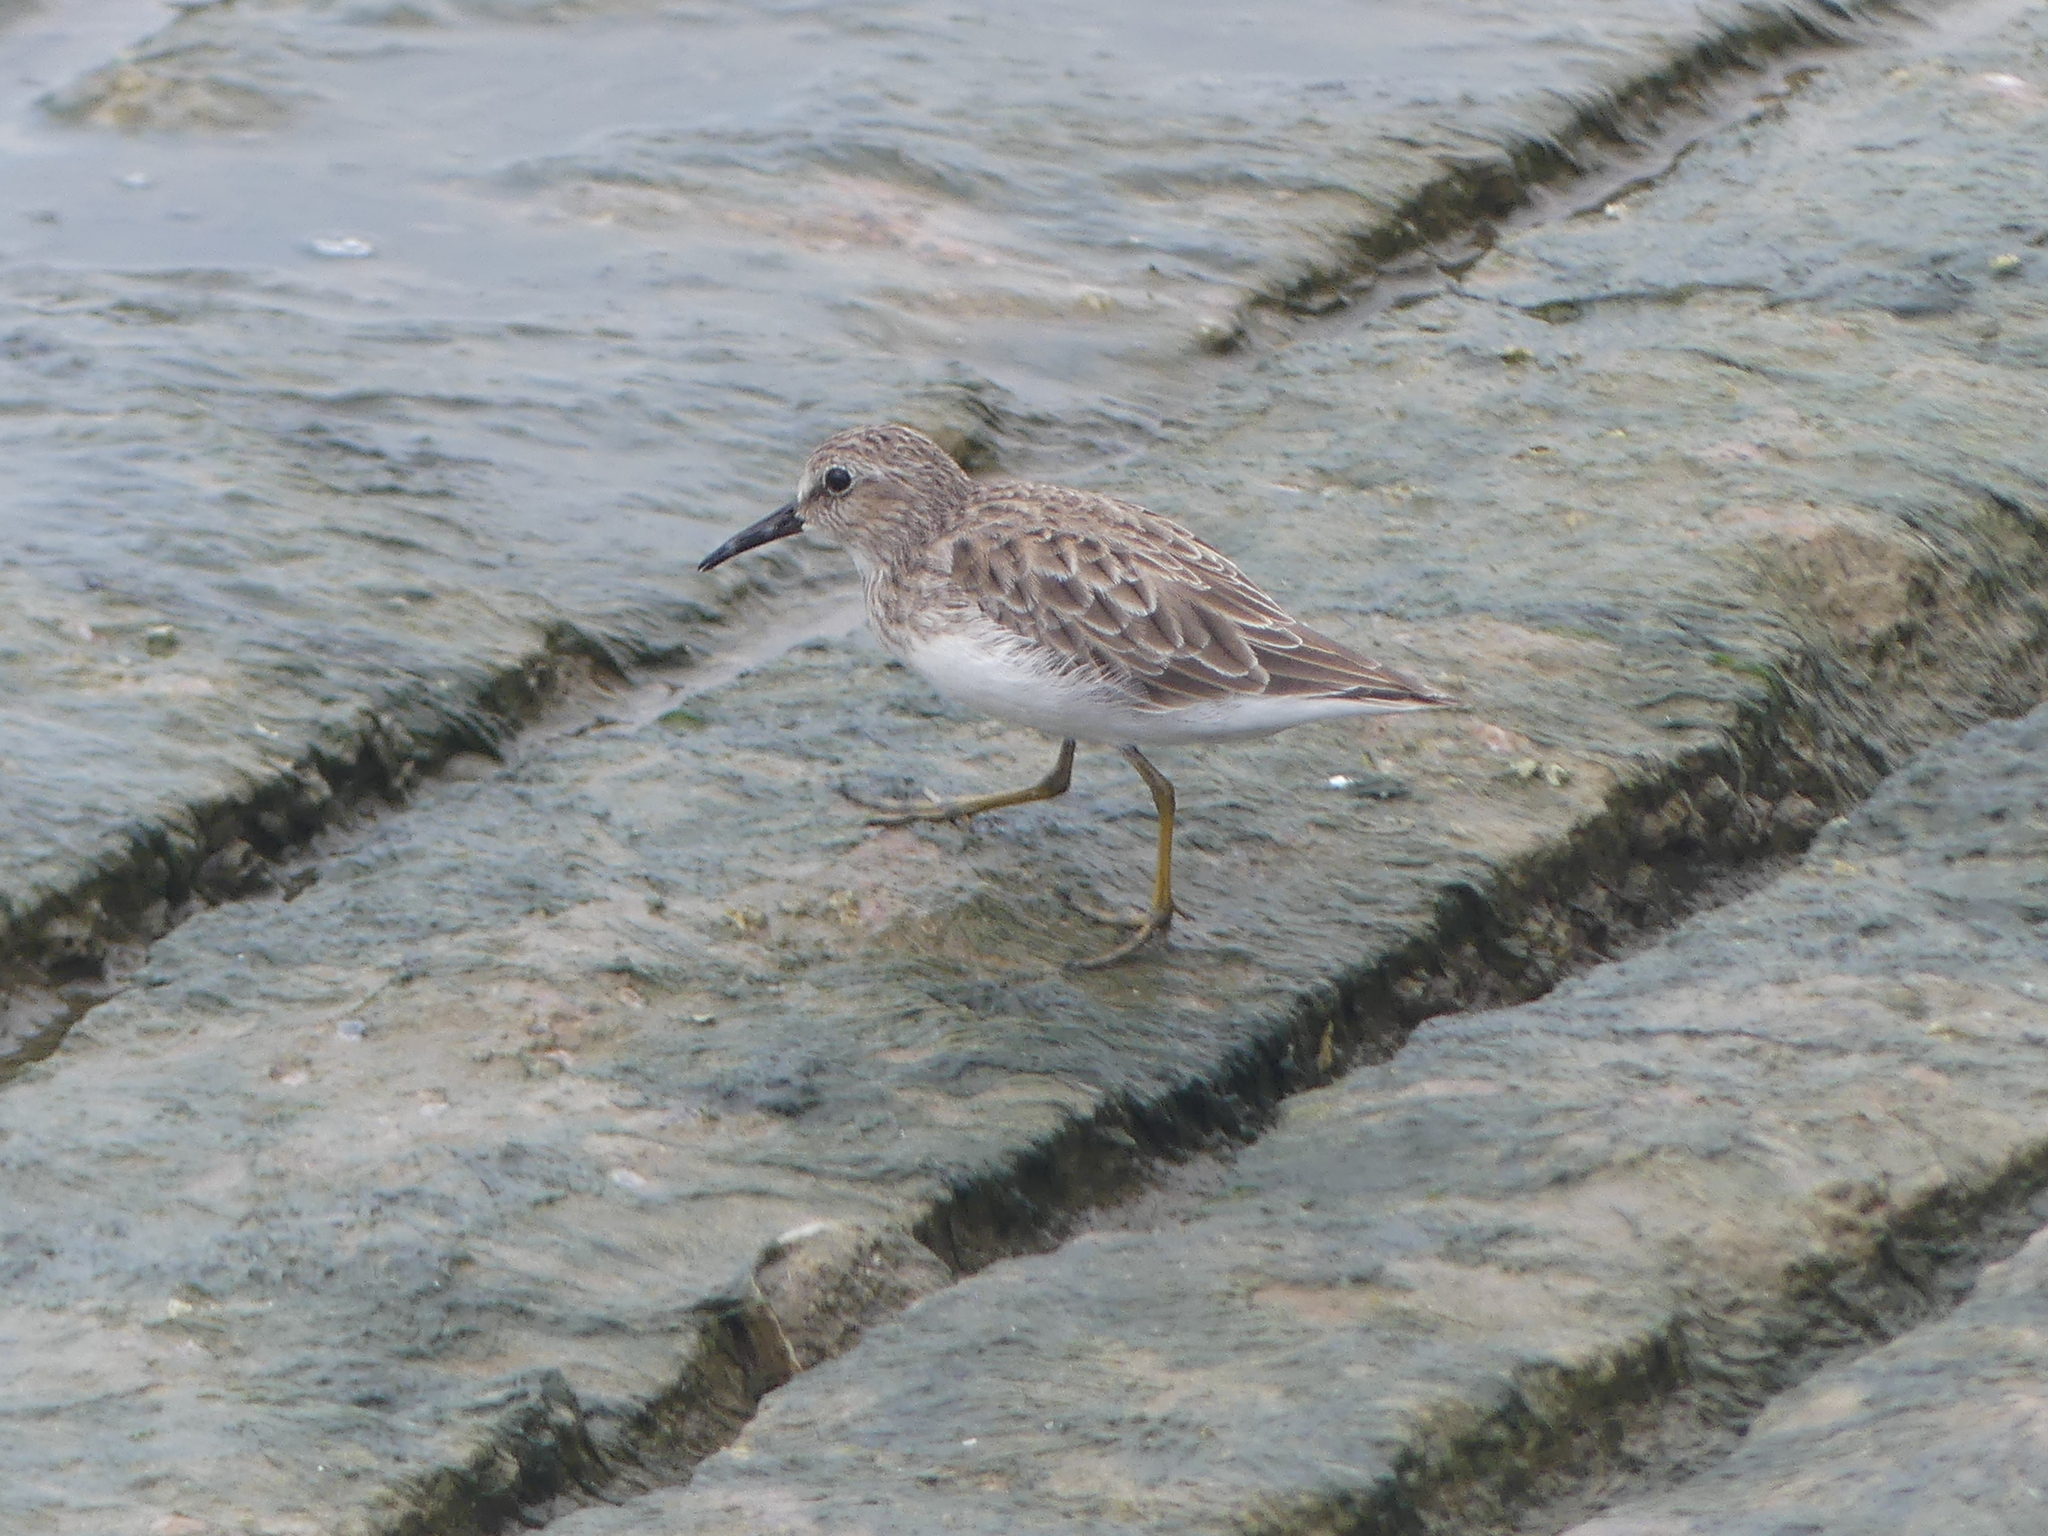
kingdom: Animalia
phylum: Chordata
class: Aves
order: Charadriiformes
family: Scolopacidae
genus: Calidris
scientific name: Calidris minutilla
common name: Least sandpiper
